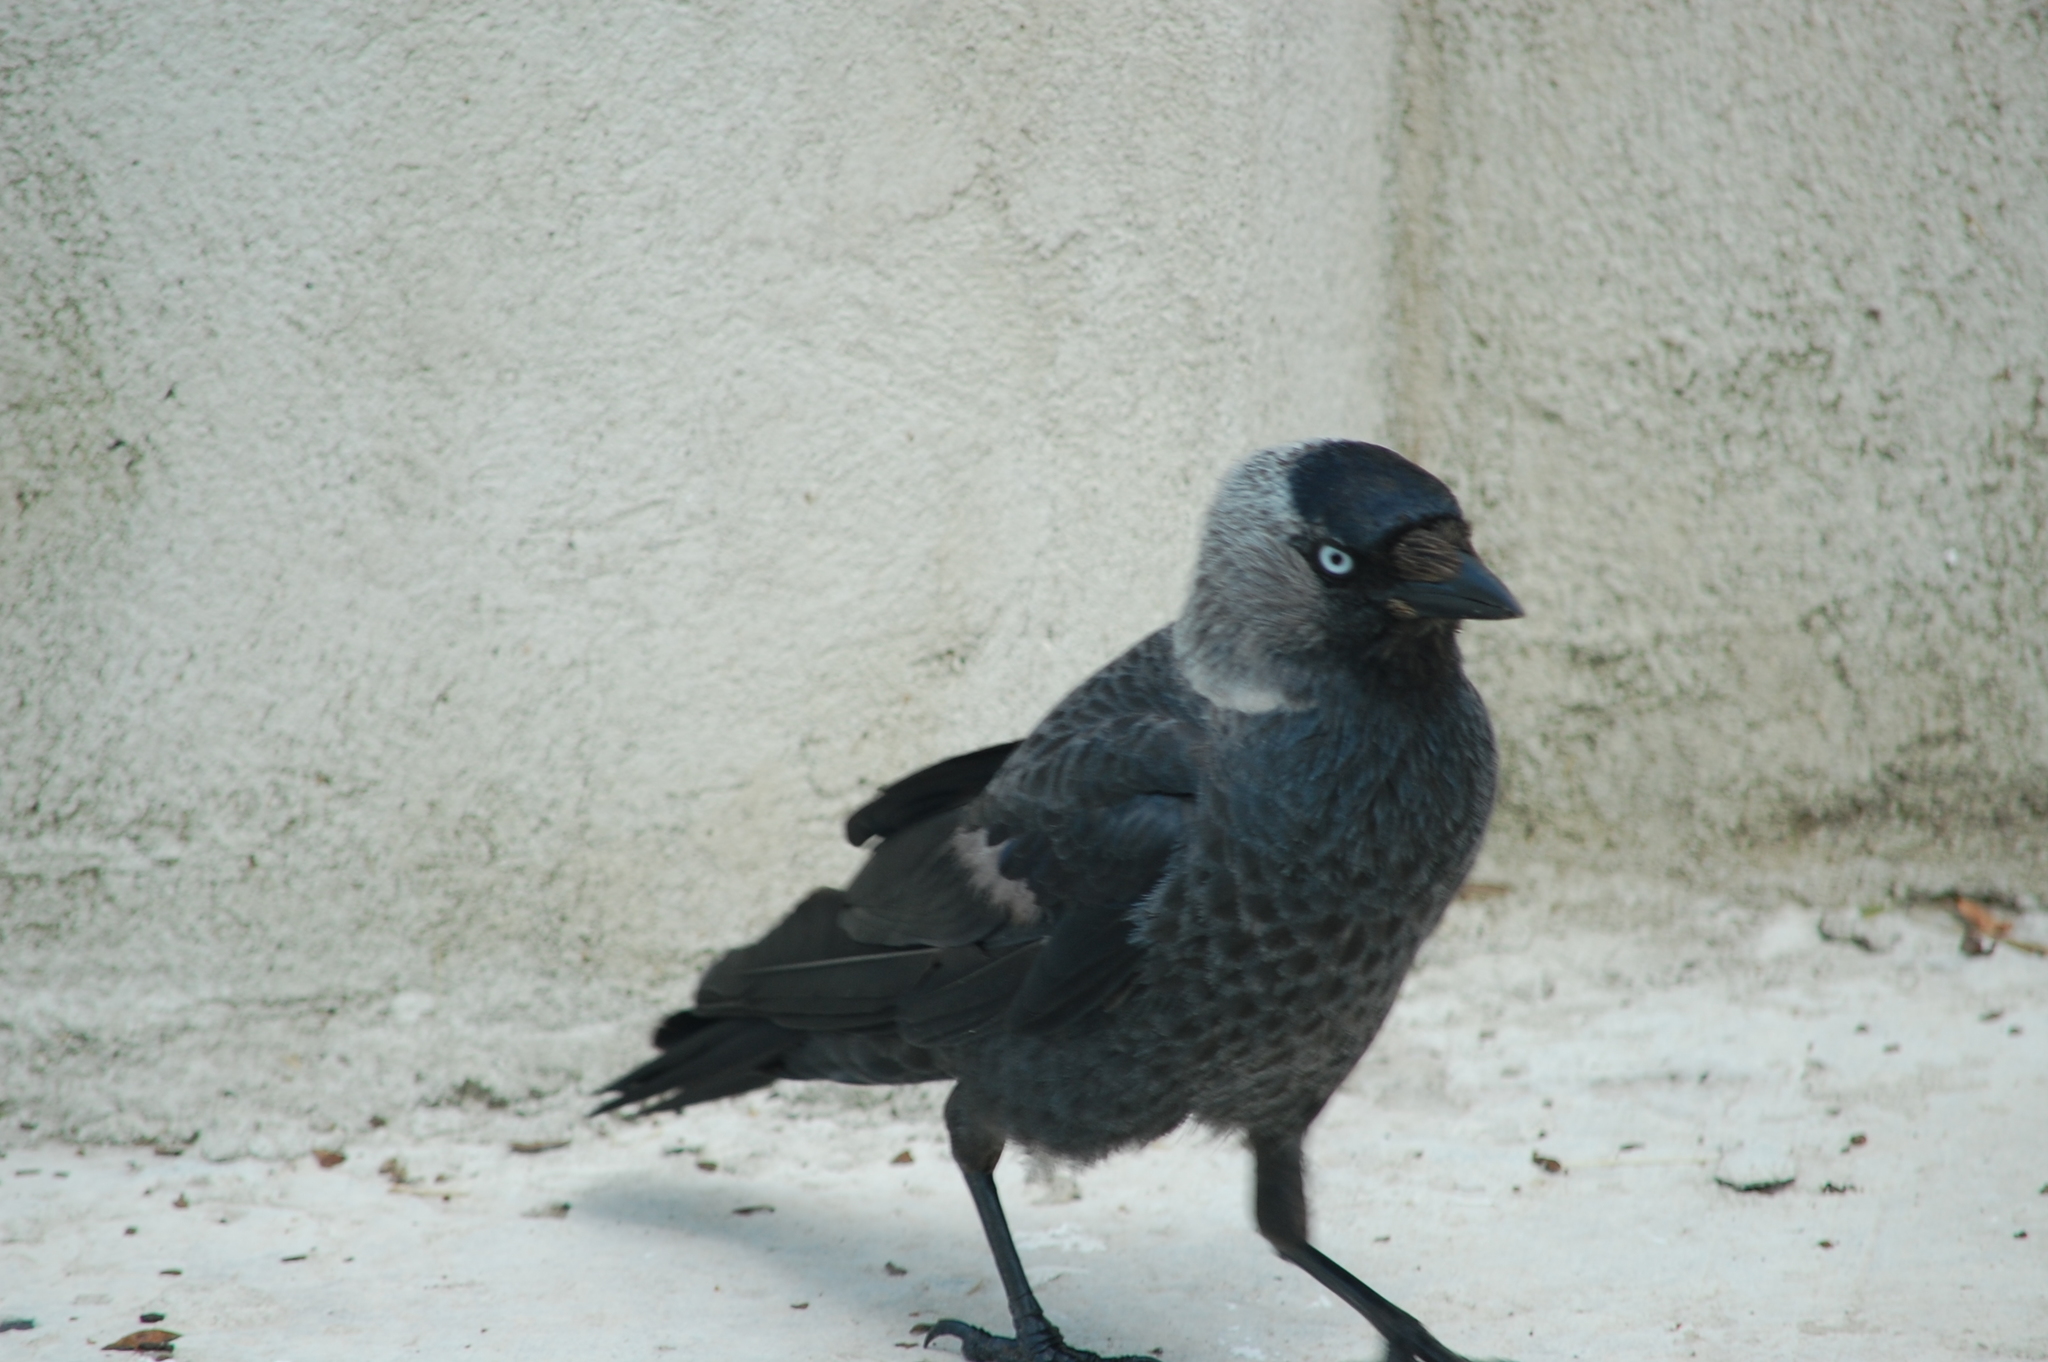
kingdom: Animalia
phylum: Chordata
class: Aves
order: Passeriformes
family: Corvidae
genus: Coloeus
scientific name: Coloeus monedula
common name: Western jackdaw
